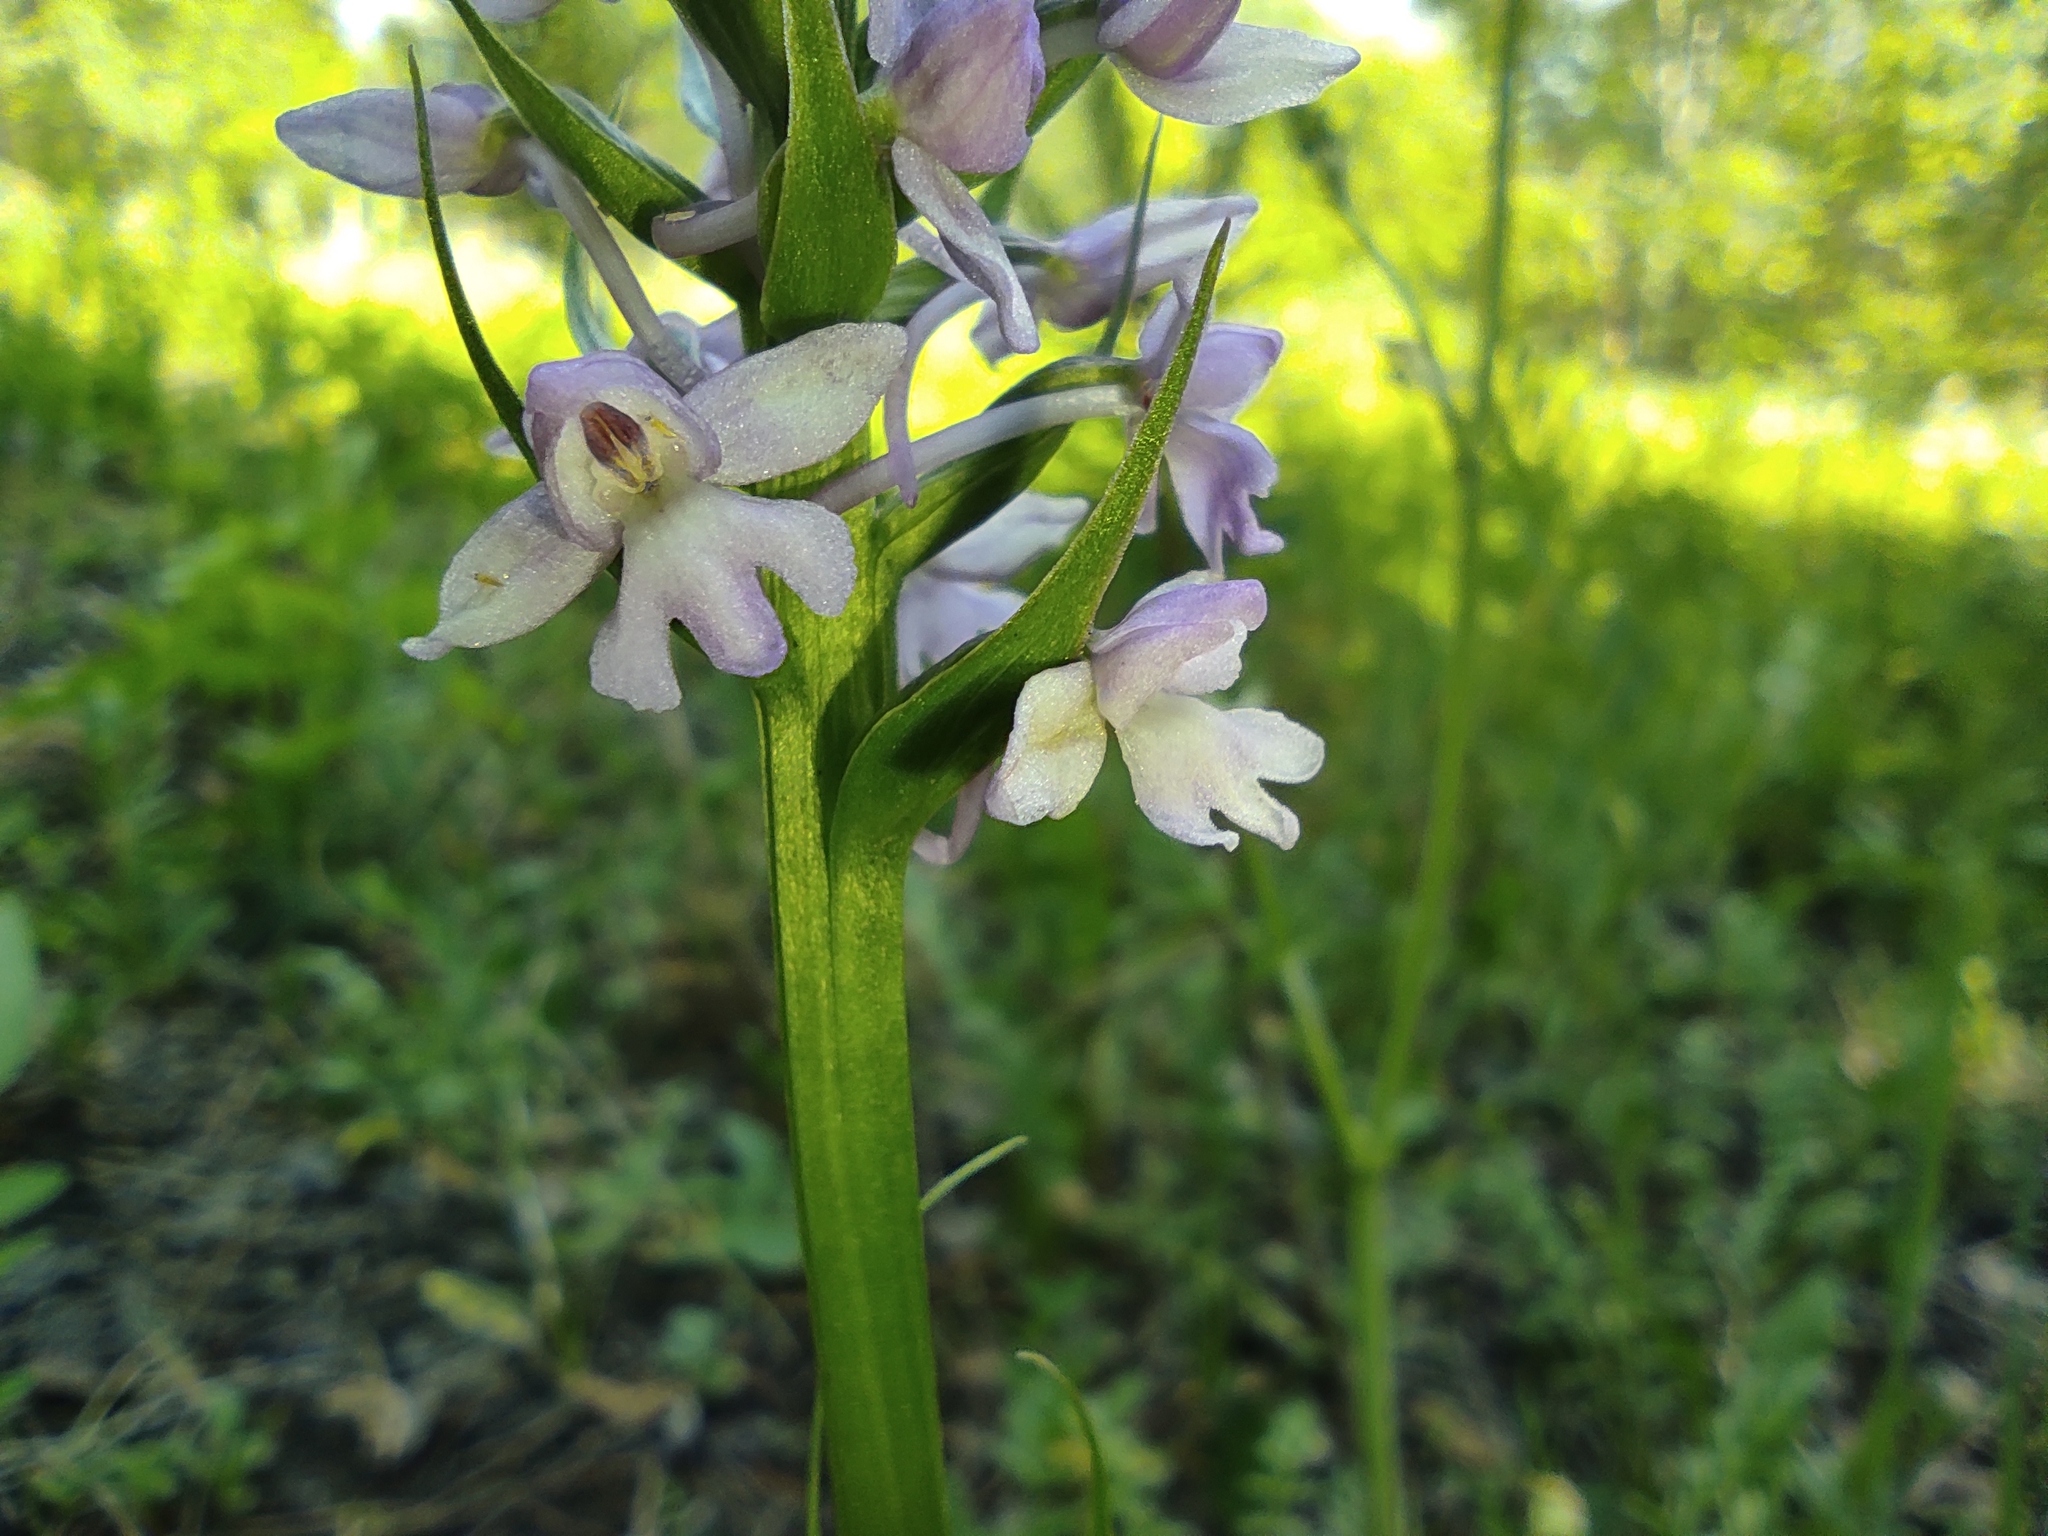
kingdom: Plantae
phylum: Tracheophyta
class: Liliopsida
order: Asparagales
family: Orchidaceae
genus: Gymnadenia
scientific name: Gymnadenia conopsea
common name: Fragrant orchid
